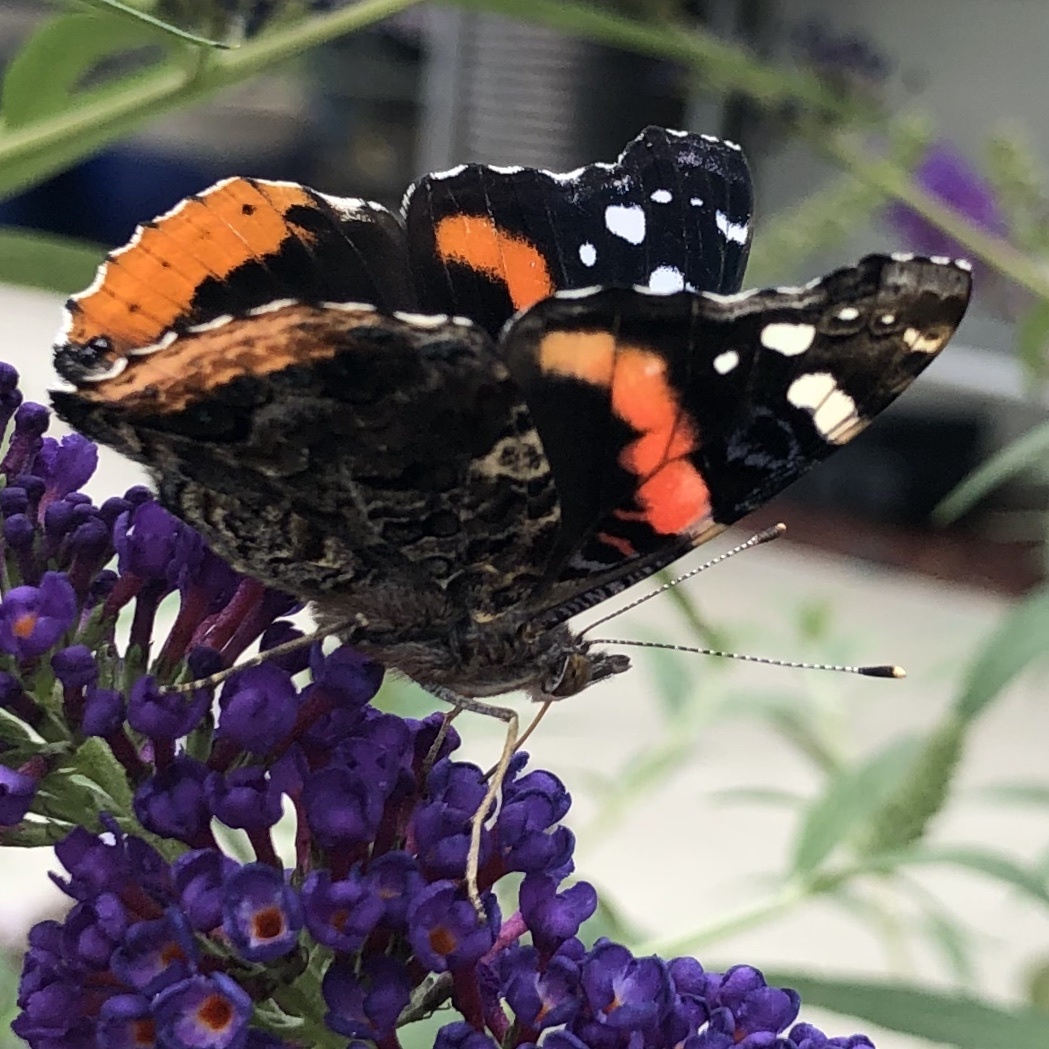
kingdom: Animalia
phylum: Arthropoda
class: Insecta
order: Lepidoptera
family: Nymphalidae
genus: Vanessa
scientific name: Vanessa atalanta
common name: Red admiral
